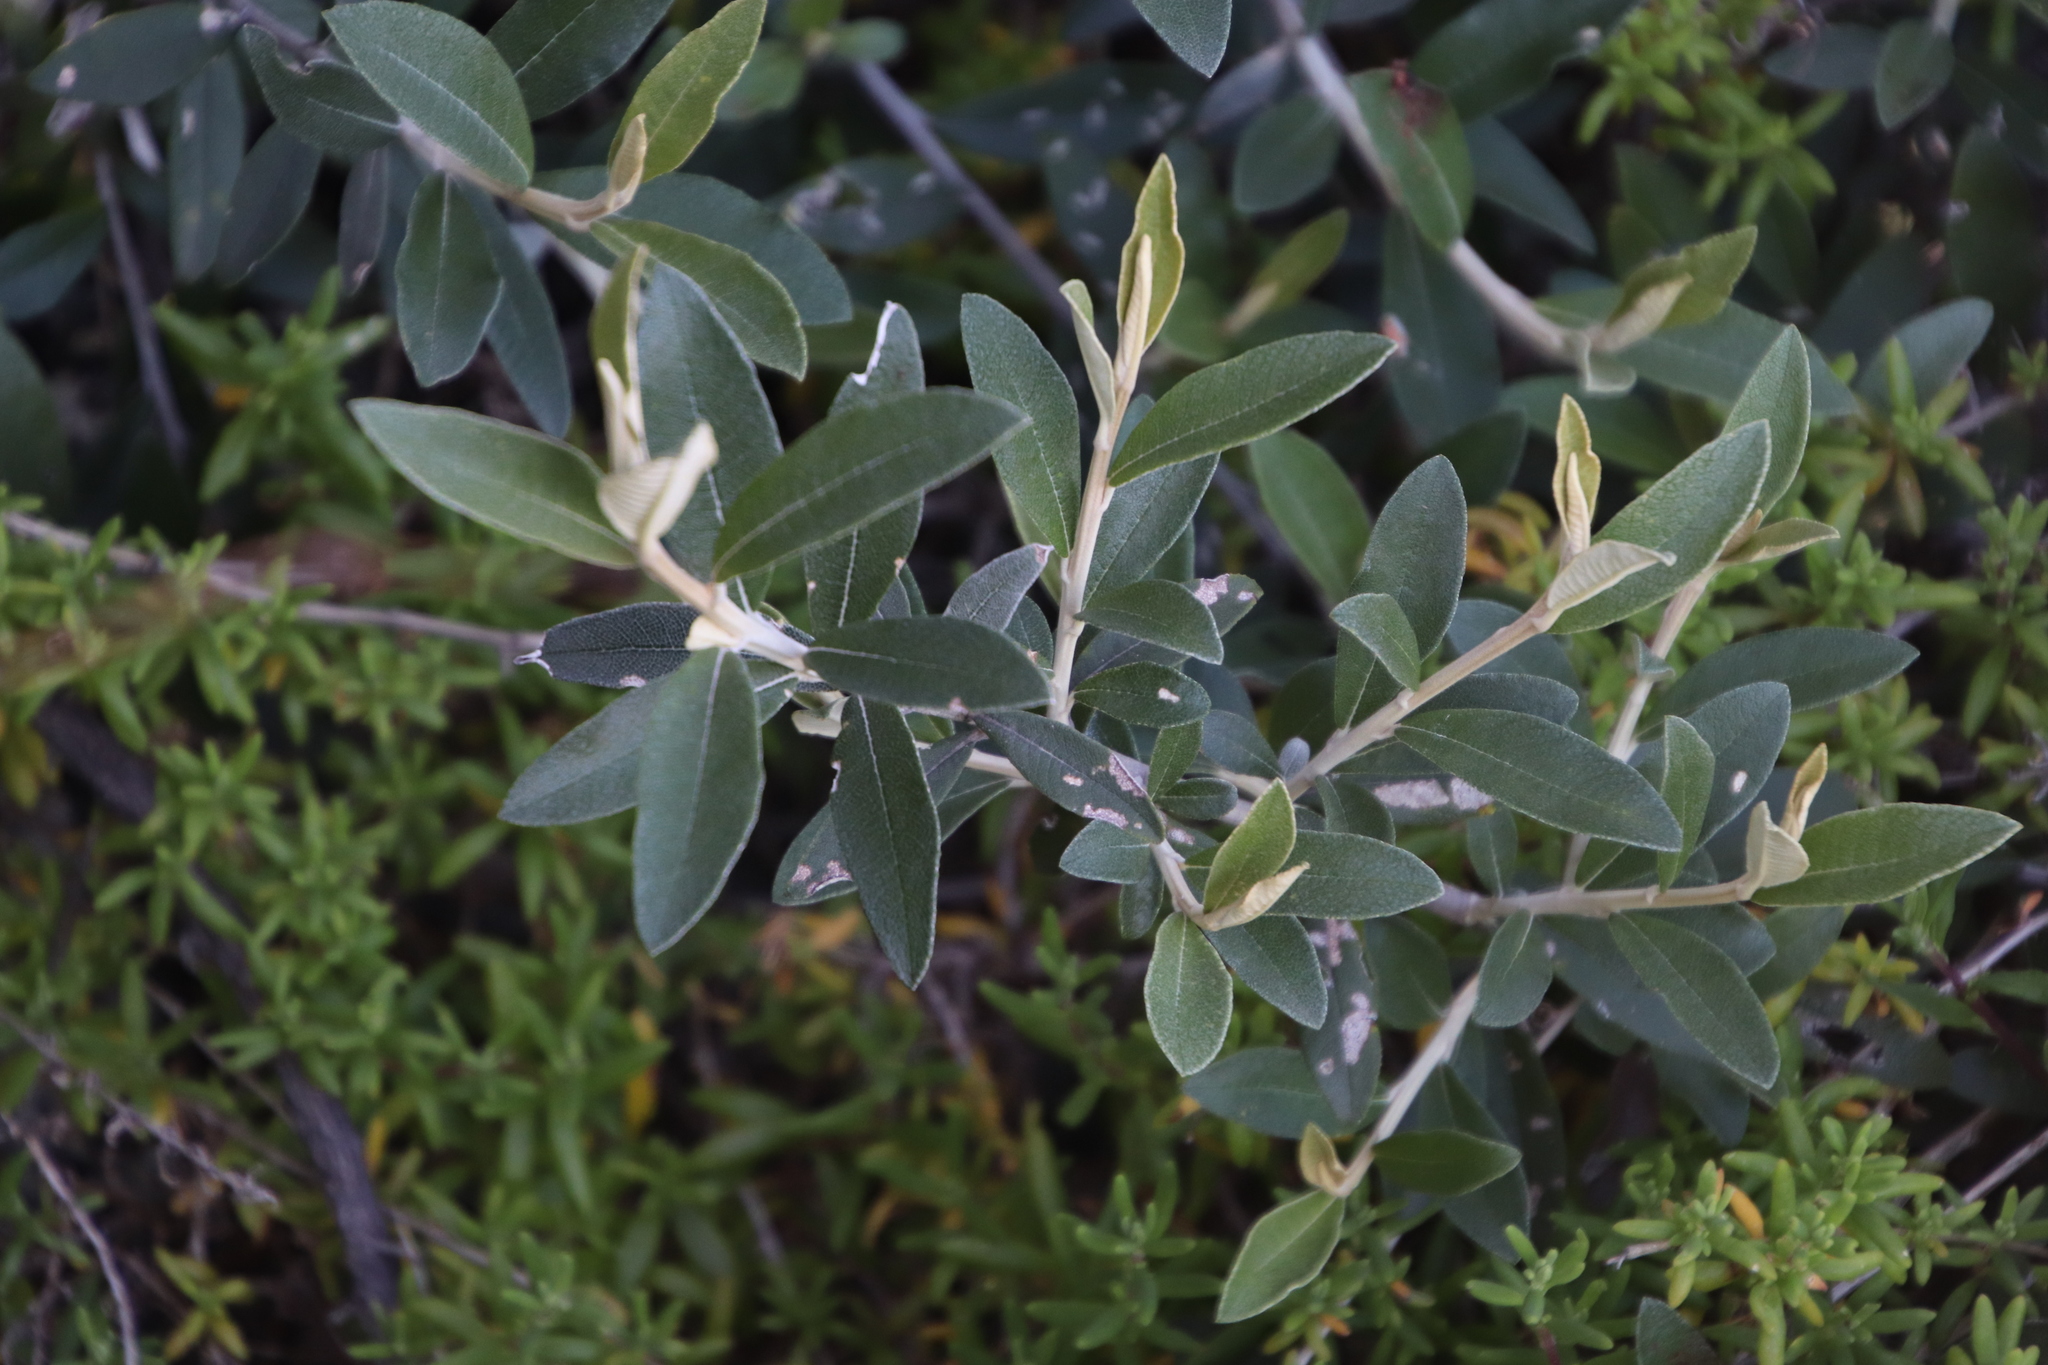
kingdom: Plantae
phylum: Tracheophyta
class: Magnoliopsida
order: Asterales
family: Asteraceae
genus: Tarchonanthus
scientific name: Tarchonanthus littoralis
